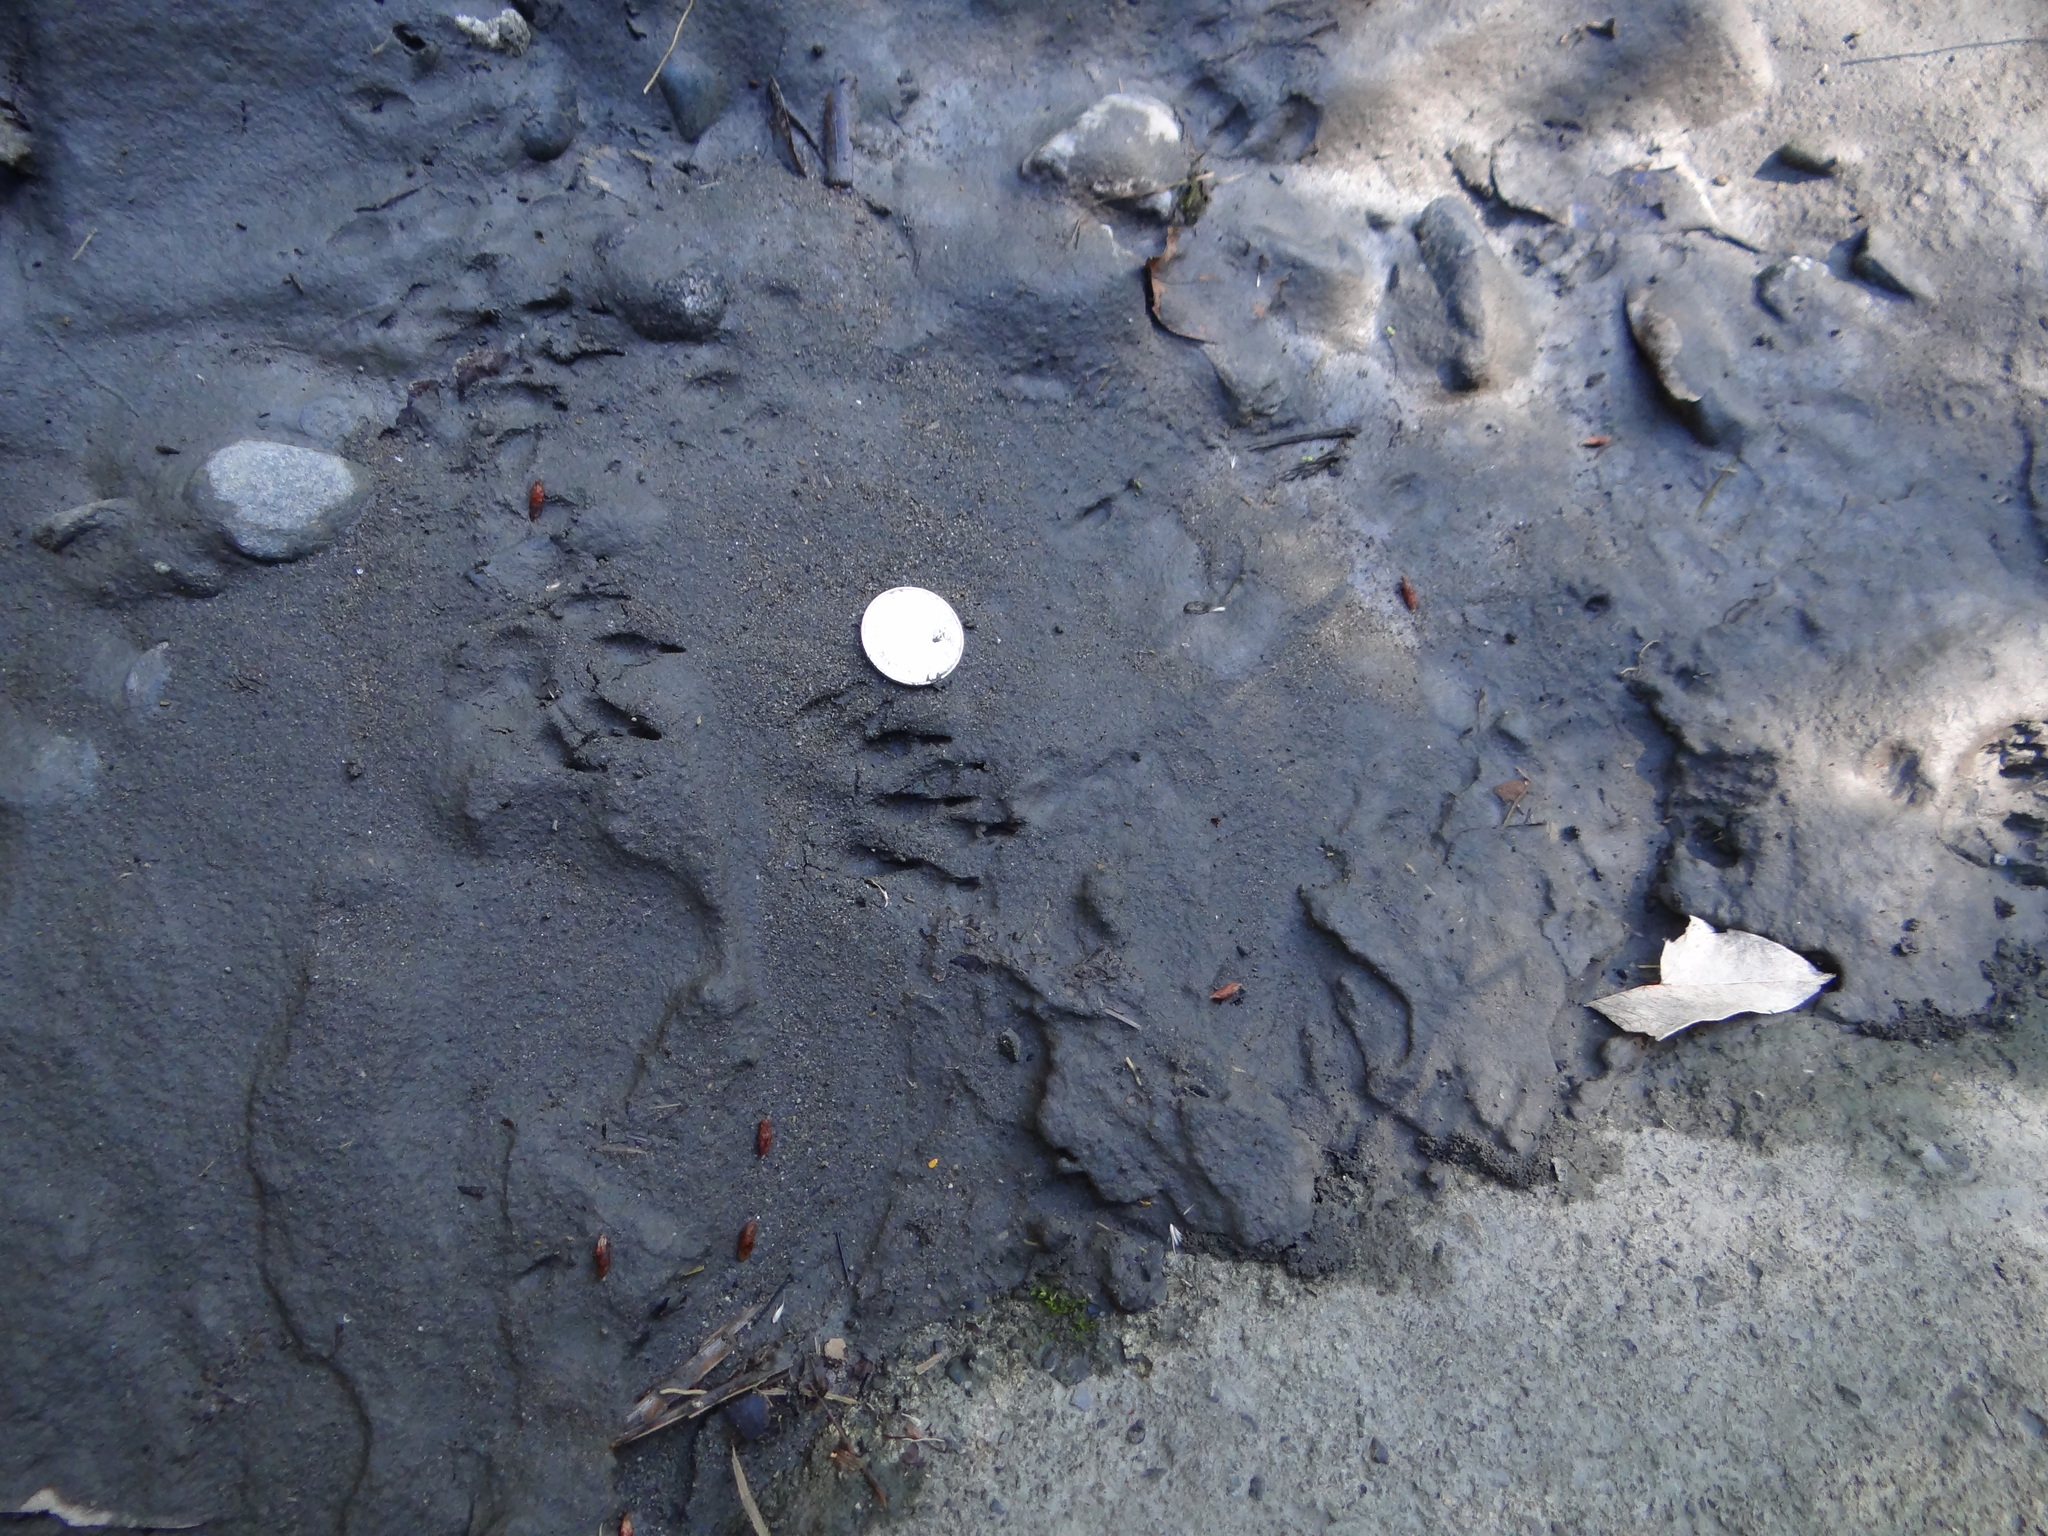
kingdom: Animalia
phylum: Chordata
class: Mammalia
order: Carnivora
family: Herpestidae
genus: Herpestes
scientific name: Herpestes urva
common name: Crab-eating mongoose
